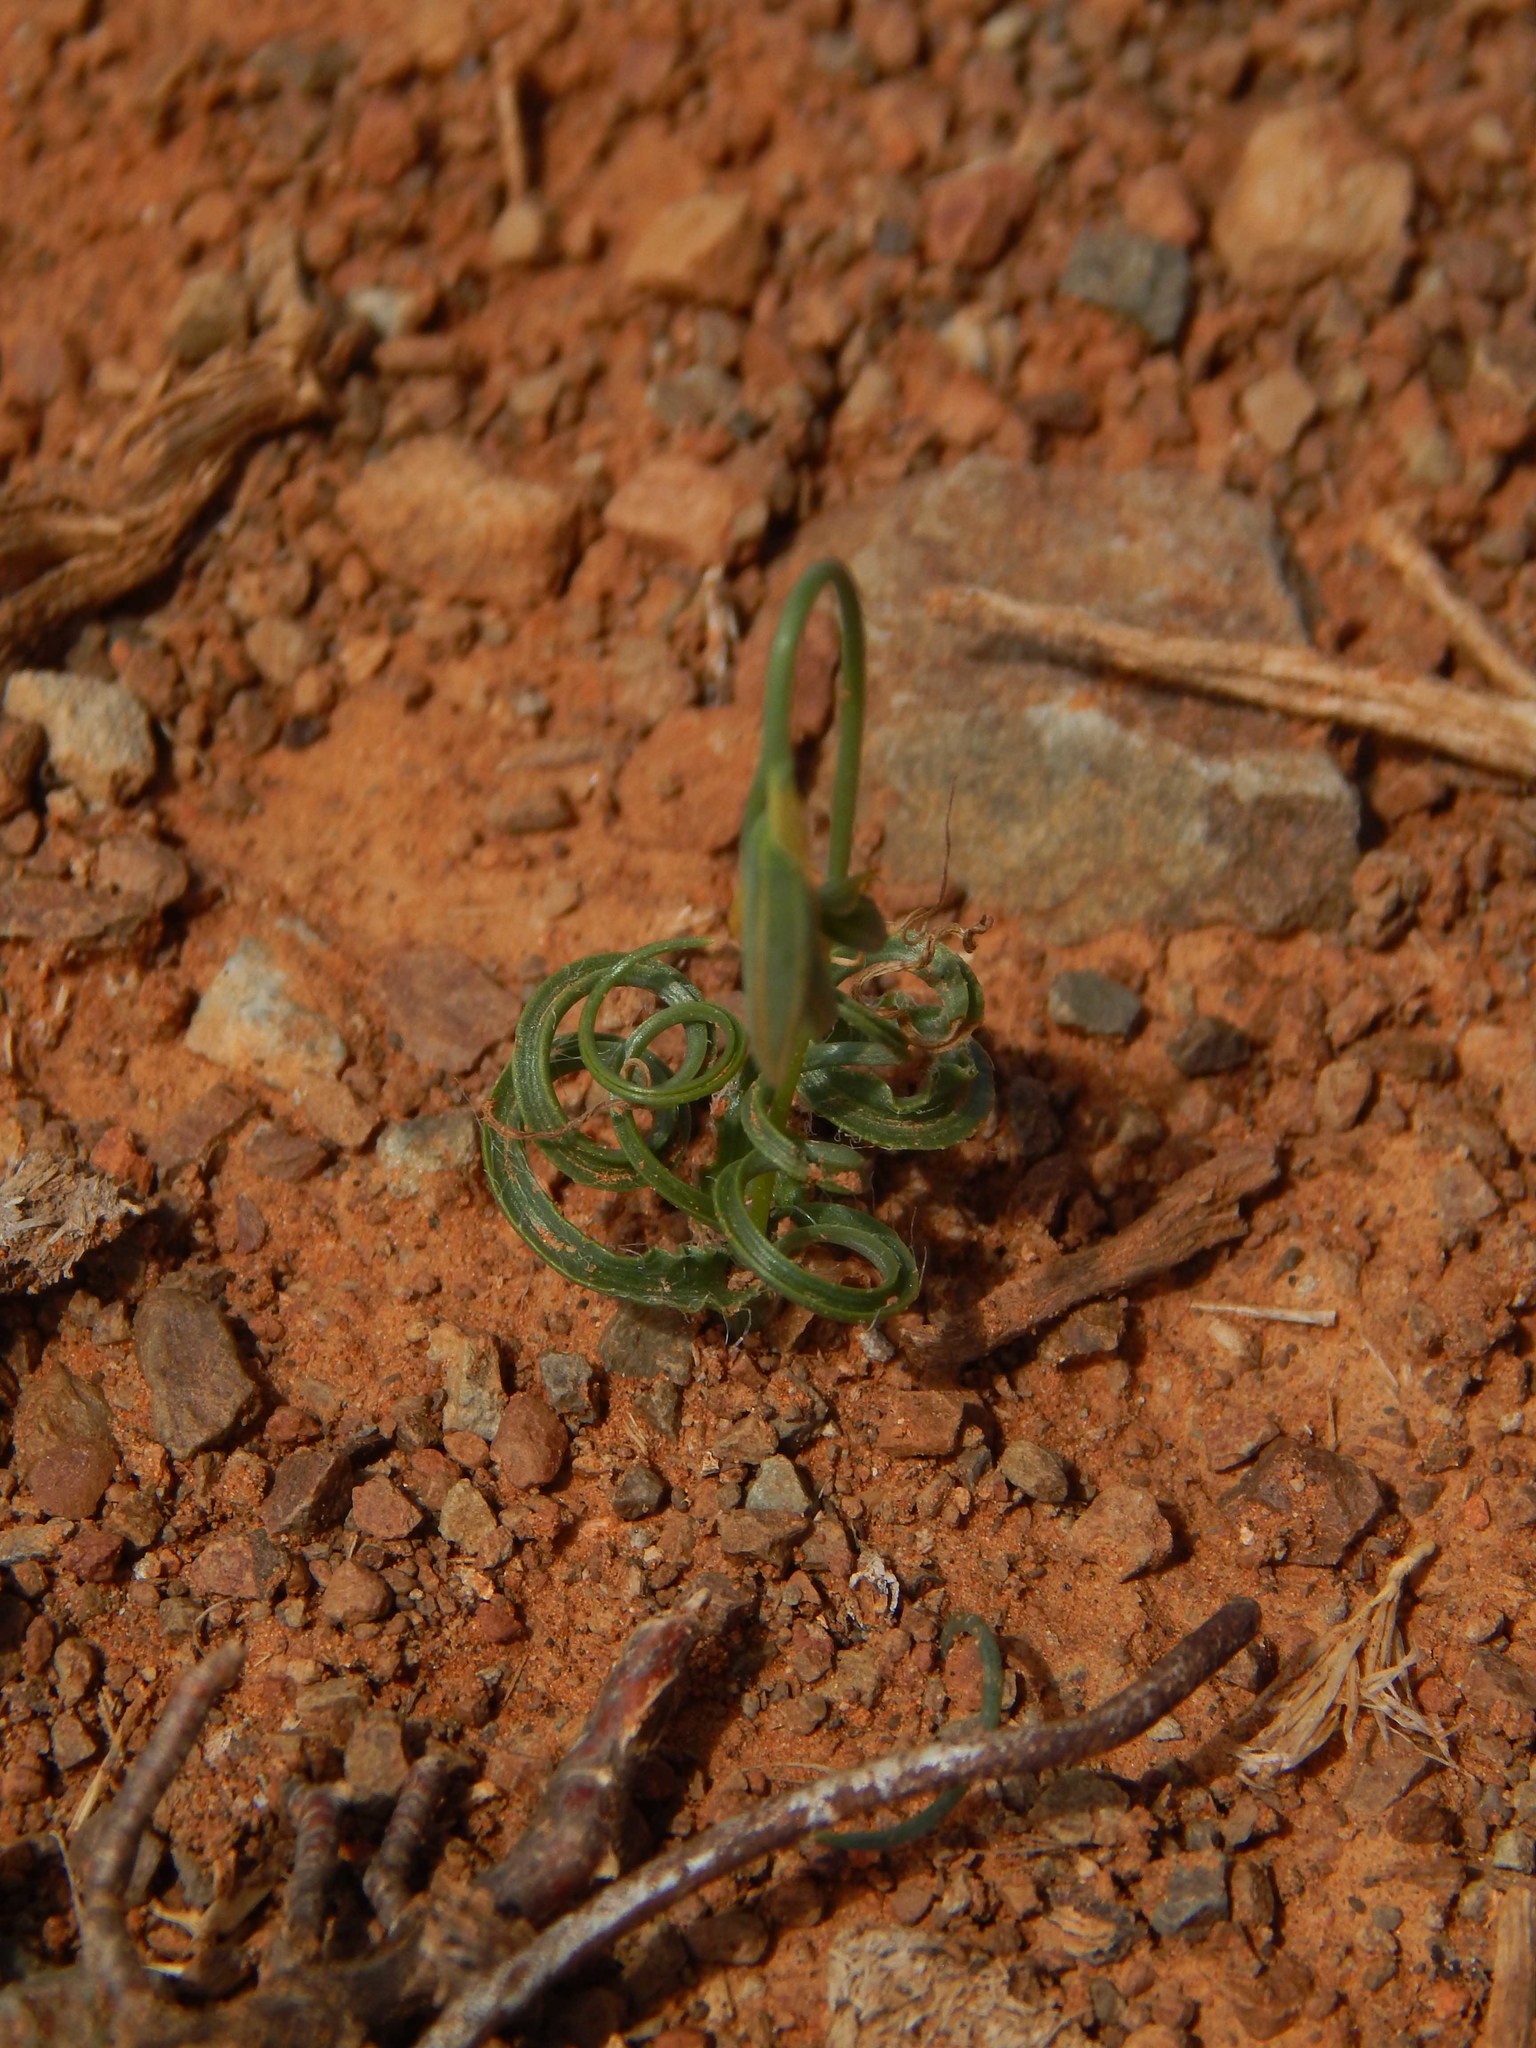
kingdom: Plantae
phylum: Tracheophyta
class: Liliopsida
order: Asparagales
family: Asparagaceae
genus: Dipcadi
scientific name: Dipcadi ciliare
